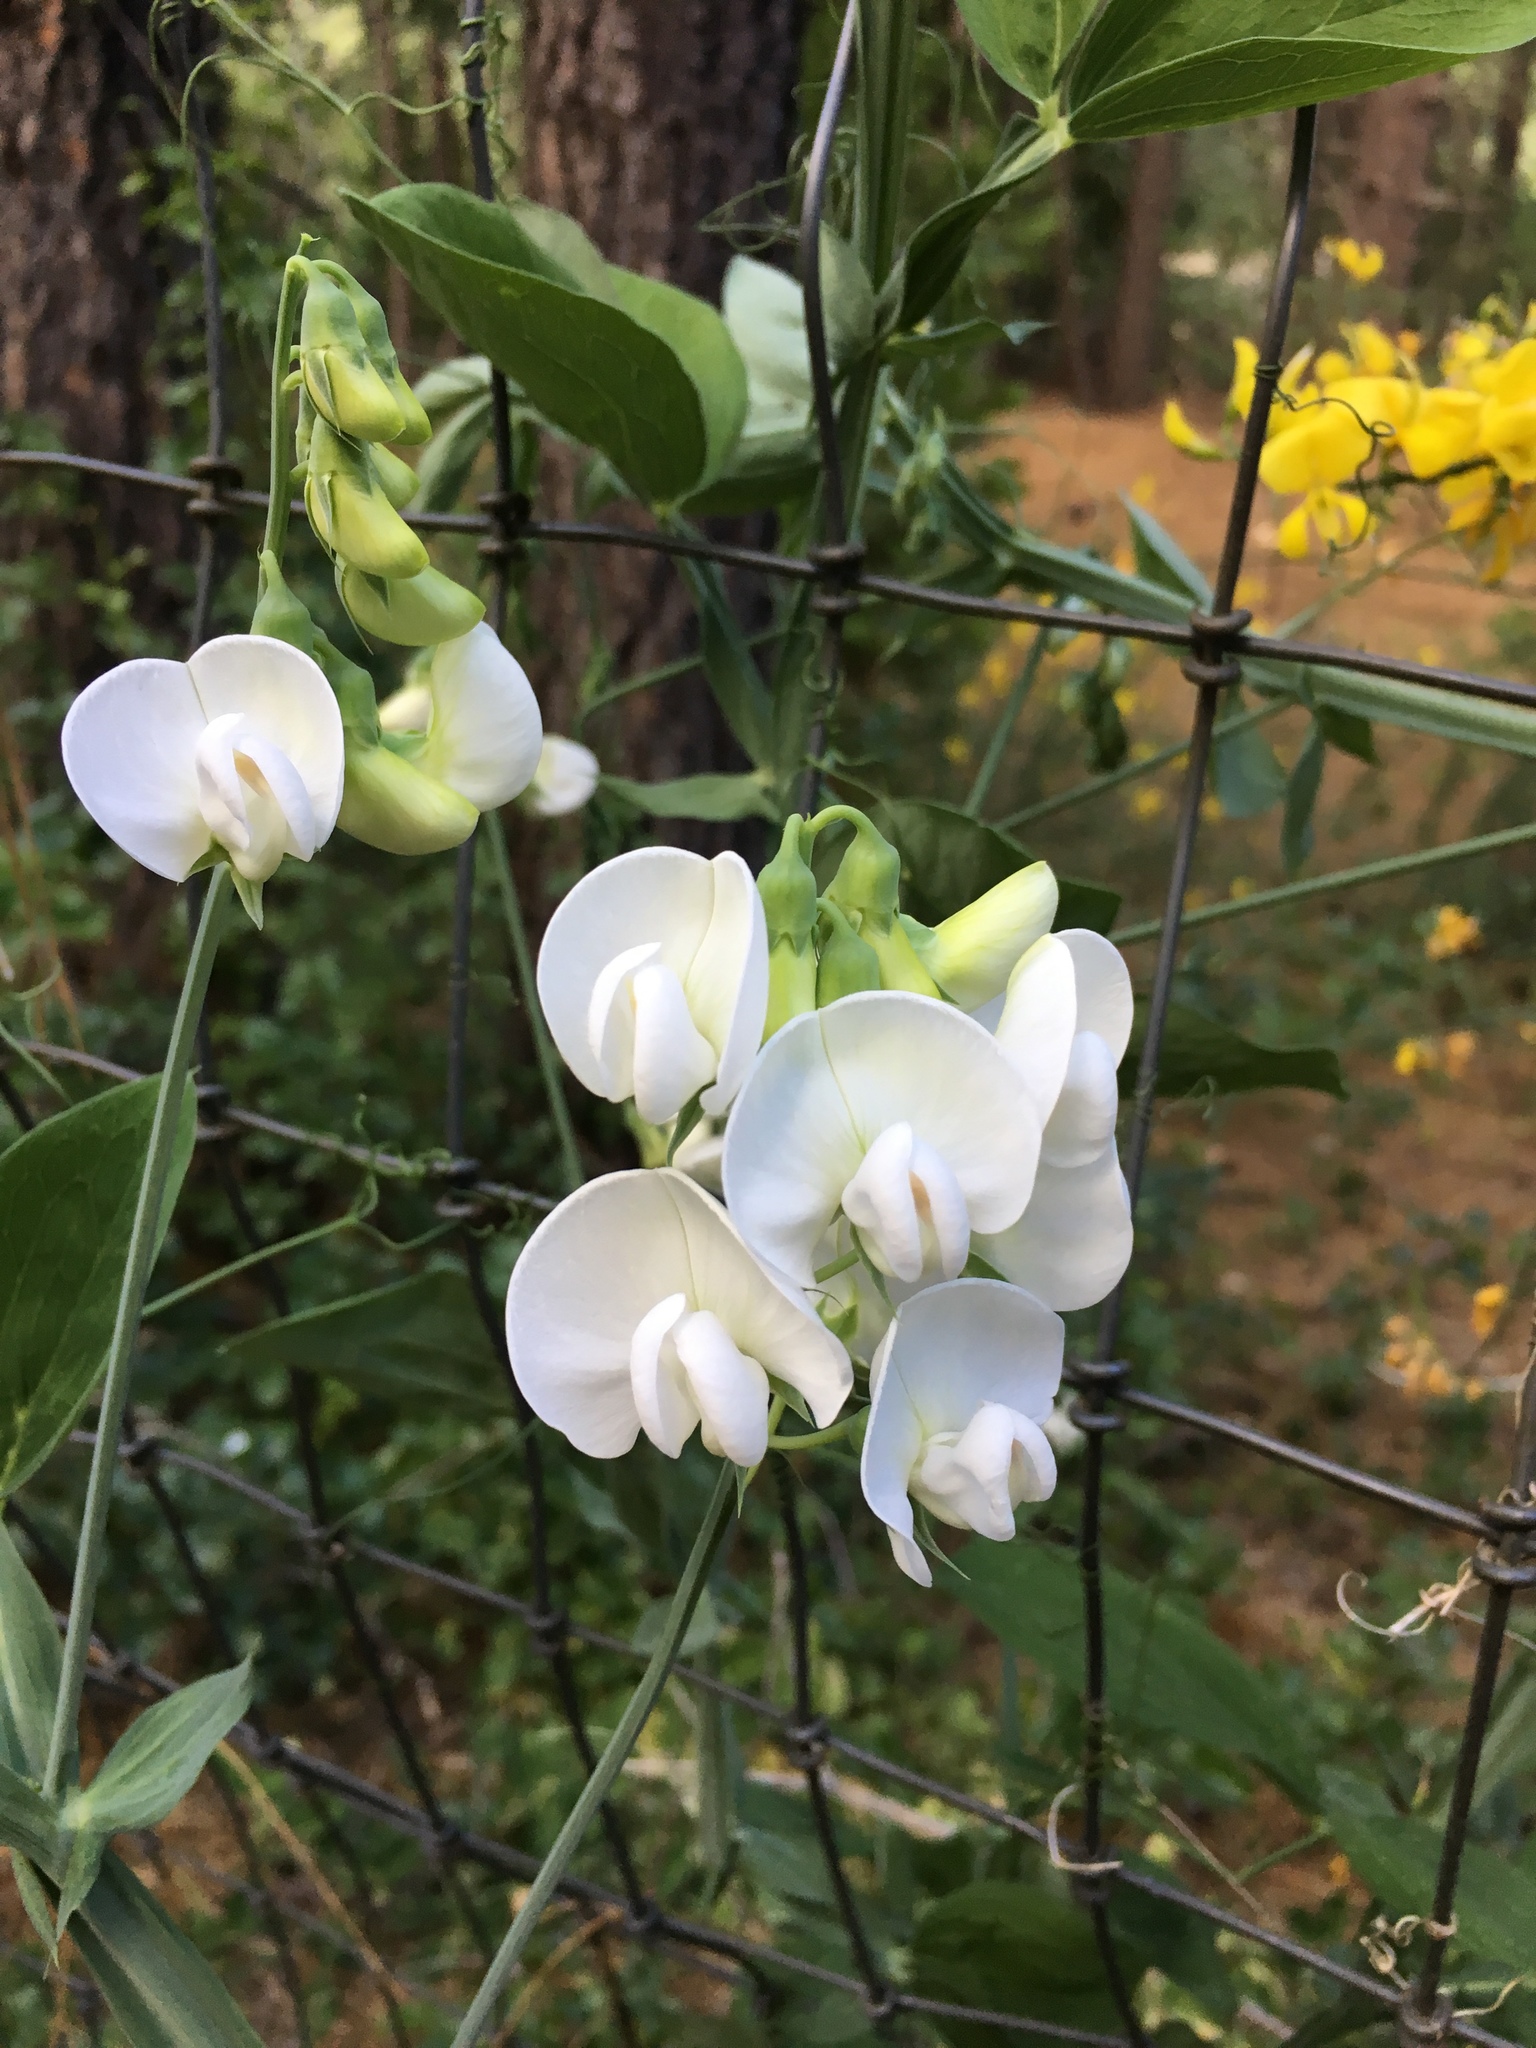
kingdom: Plantae
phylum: Tracheophyta
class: Magnoliopsida
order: Fabales
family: Fabaceae
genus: Lathyrus
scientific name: Lathyrus latifolius
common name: Perennial pea
